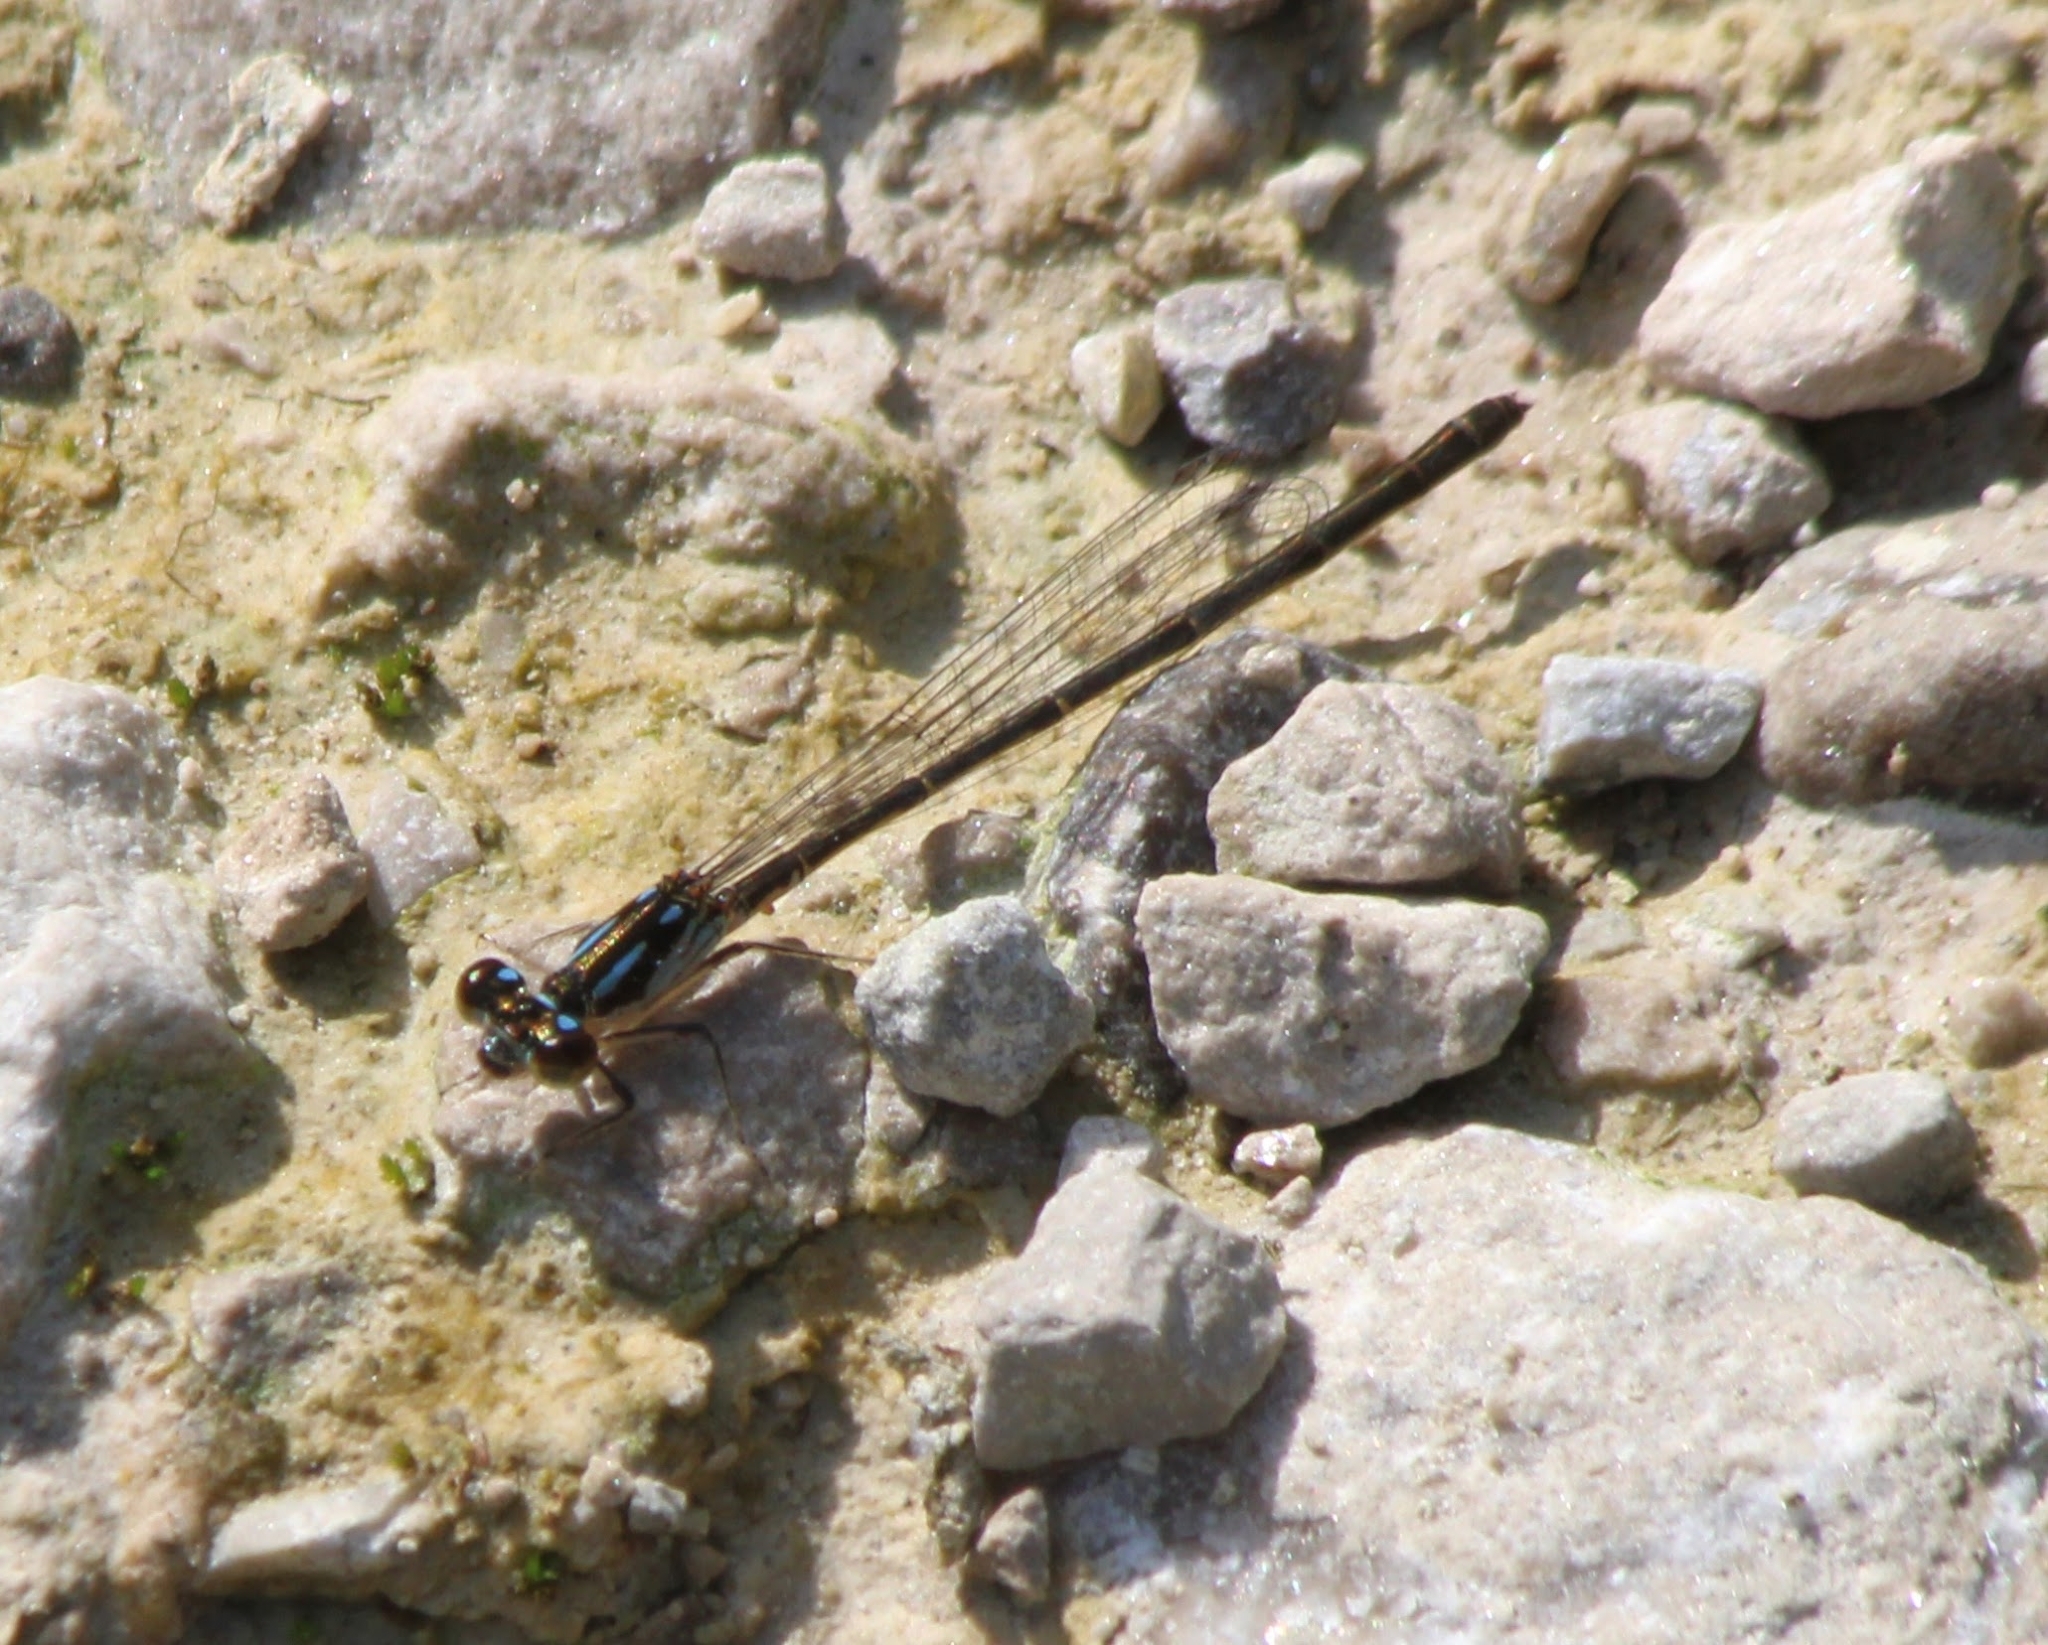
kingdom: Animalia
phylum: Arthropoda
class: Insecta
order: Odonata
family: Coenagrionidae
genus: Ischnura
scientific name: Ischnura posita
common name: Fragile forktail
